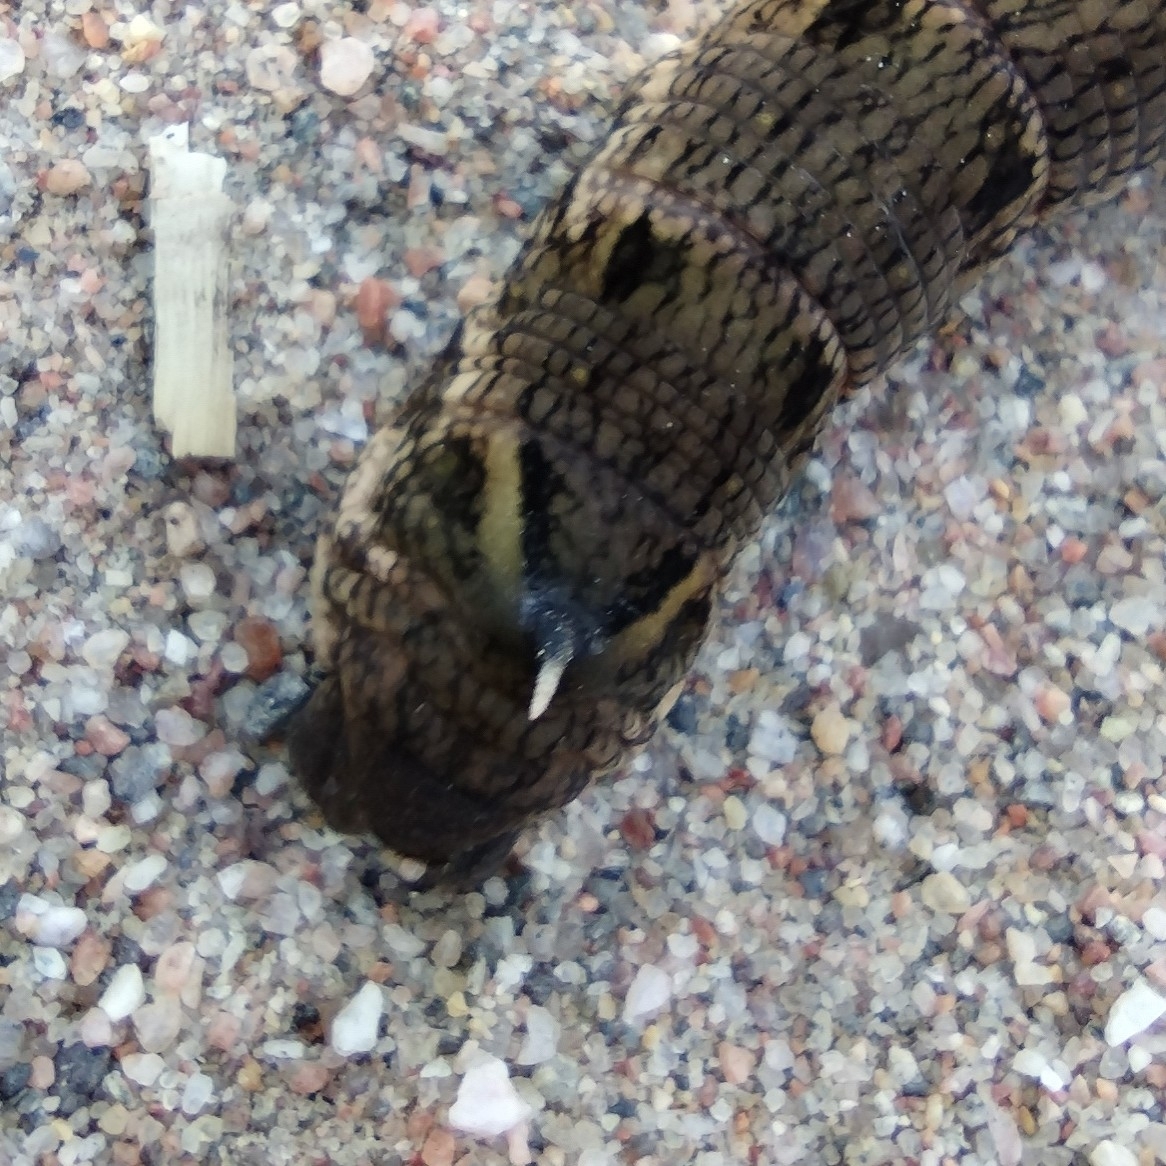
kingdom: Animalia
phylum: Arthropoda
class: Insecta
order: Lepidoptera
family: Sphingidae
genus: Deilephila
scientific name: Deilephila elpenor
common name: Elephant hawk-moth
